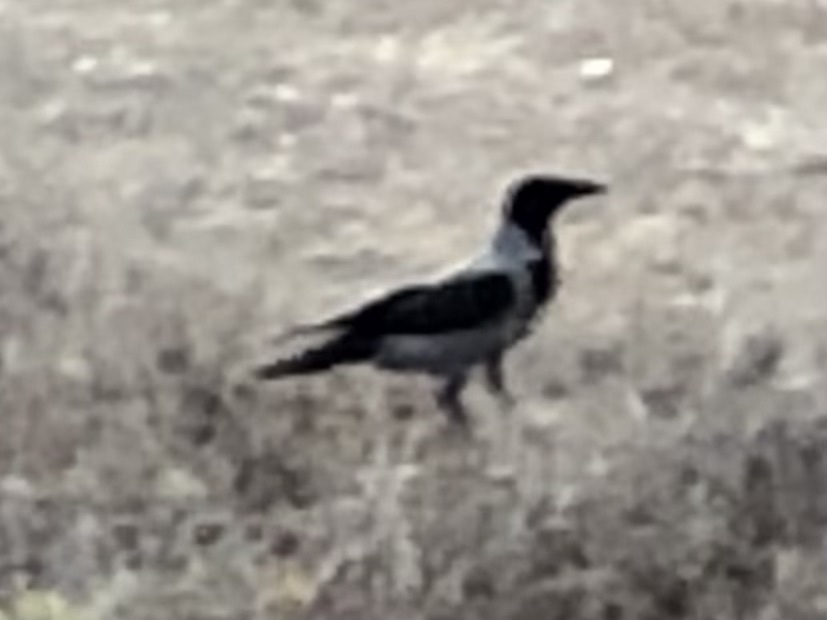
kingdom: Animalia
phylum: Chordata
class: Aves
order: Passeriformes
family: Corvidae
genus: Corvus
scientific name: Corvus cornix
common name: Hooded crow
